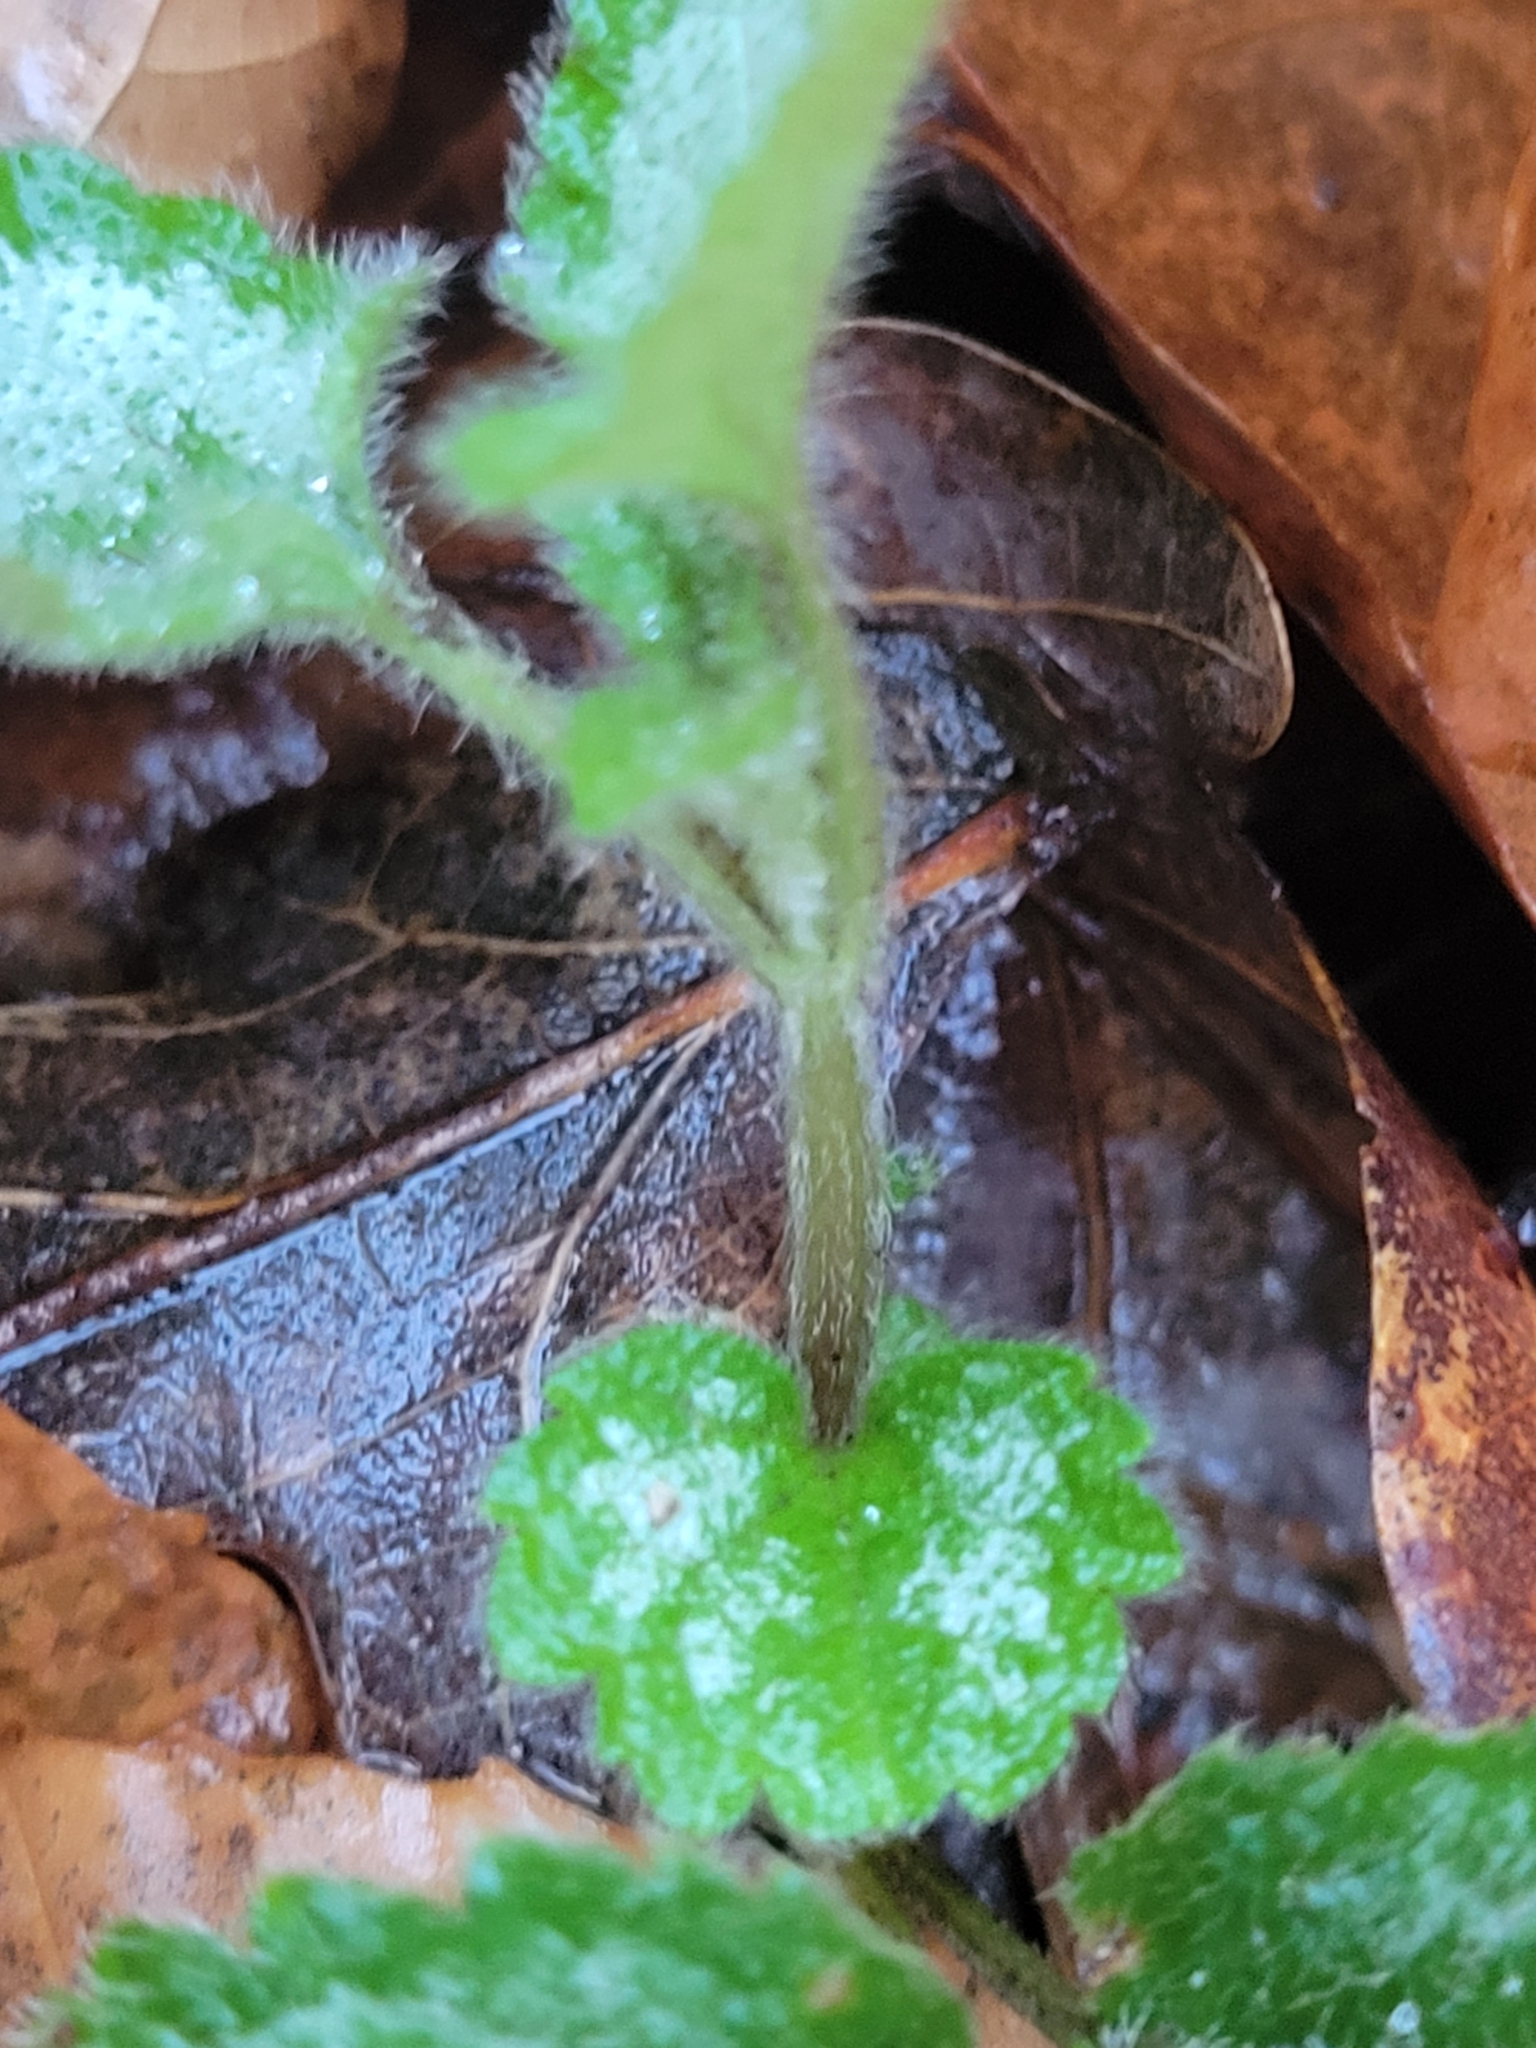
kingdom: Plantae
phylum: Tracheophyta
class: Magnoliopsida
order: Lamiales
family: Lamiaceae
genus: Lamium
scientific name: Lamium galeobdolon
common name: Yellow archangel
